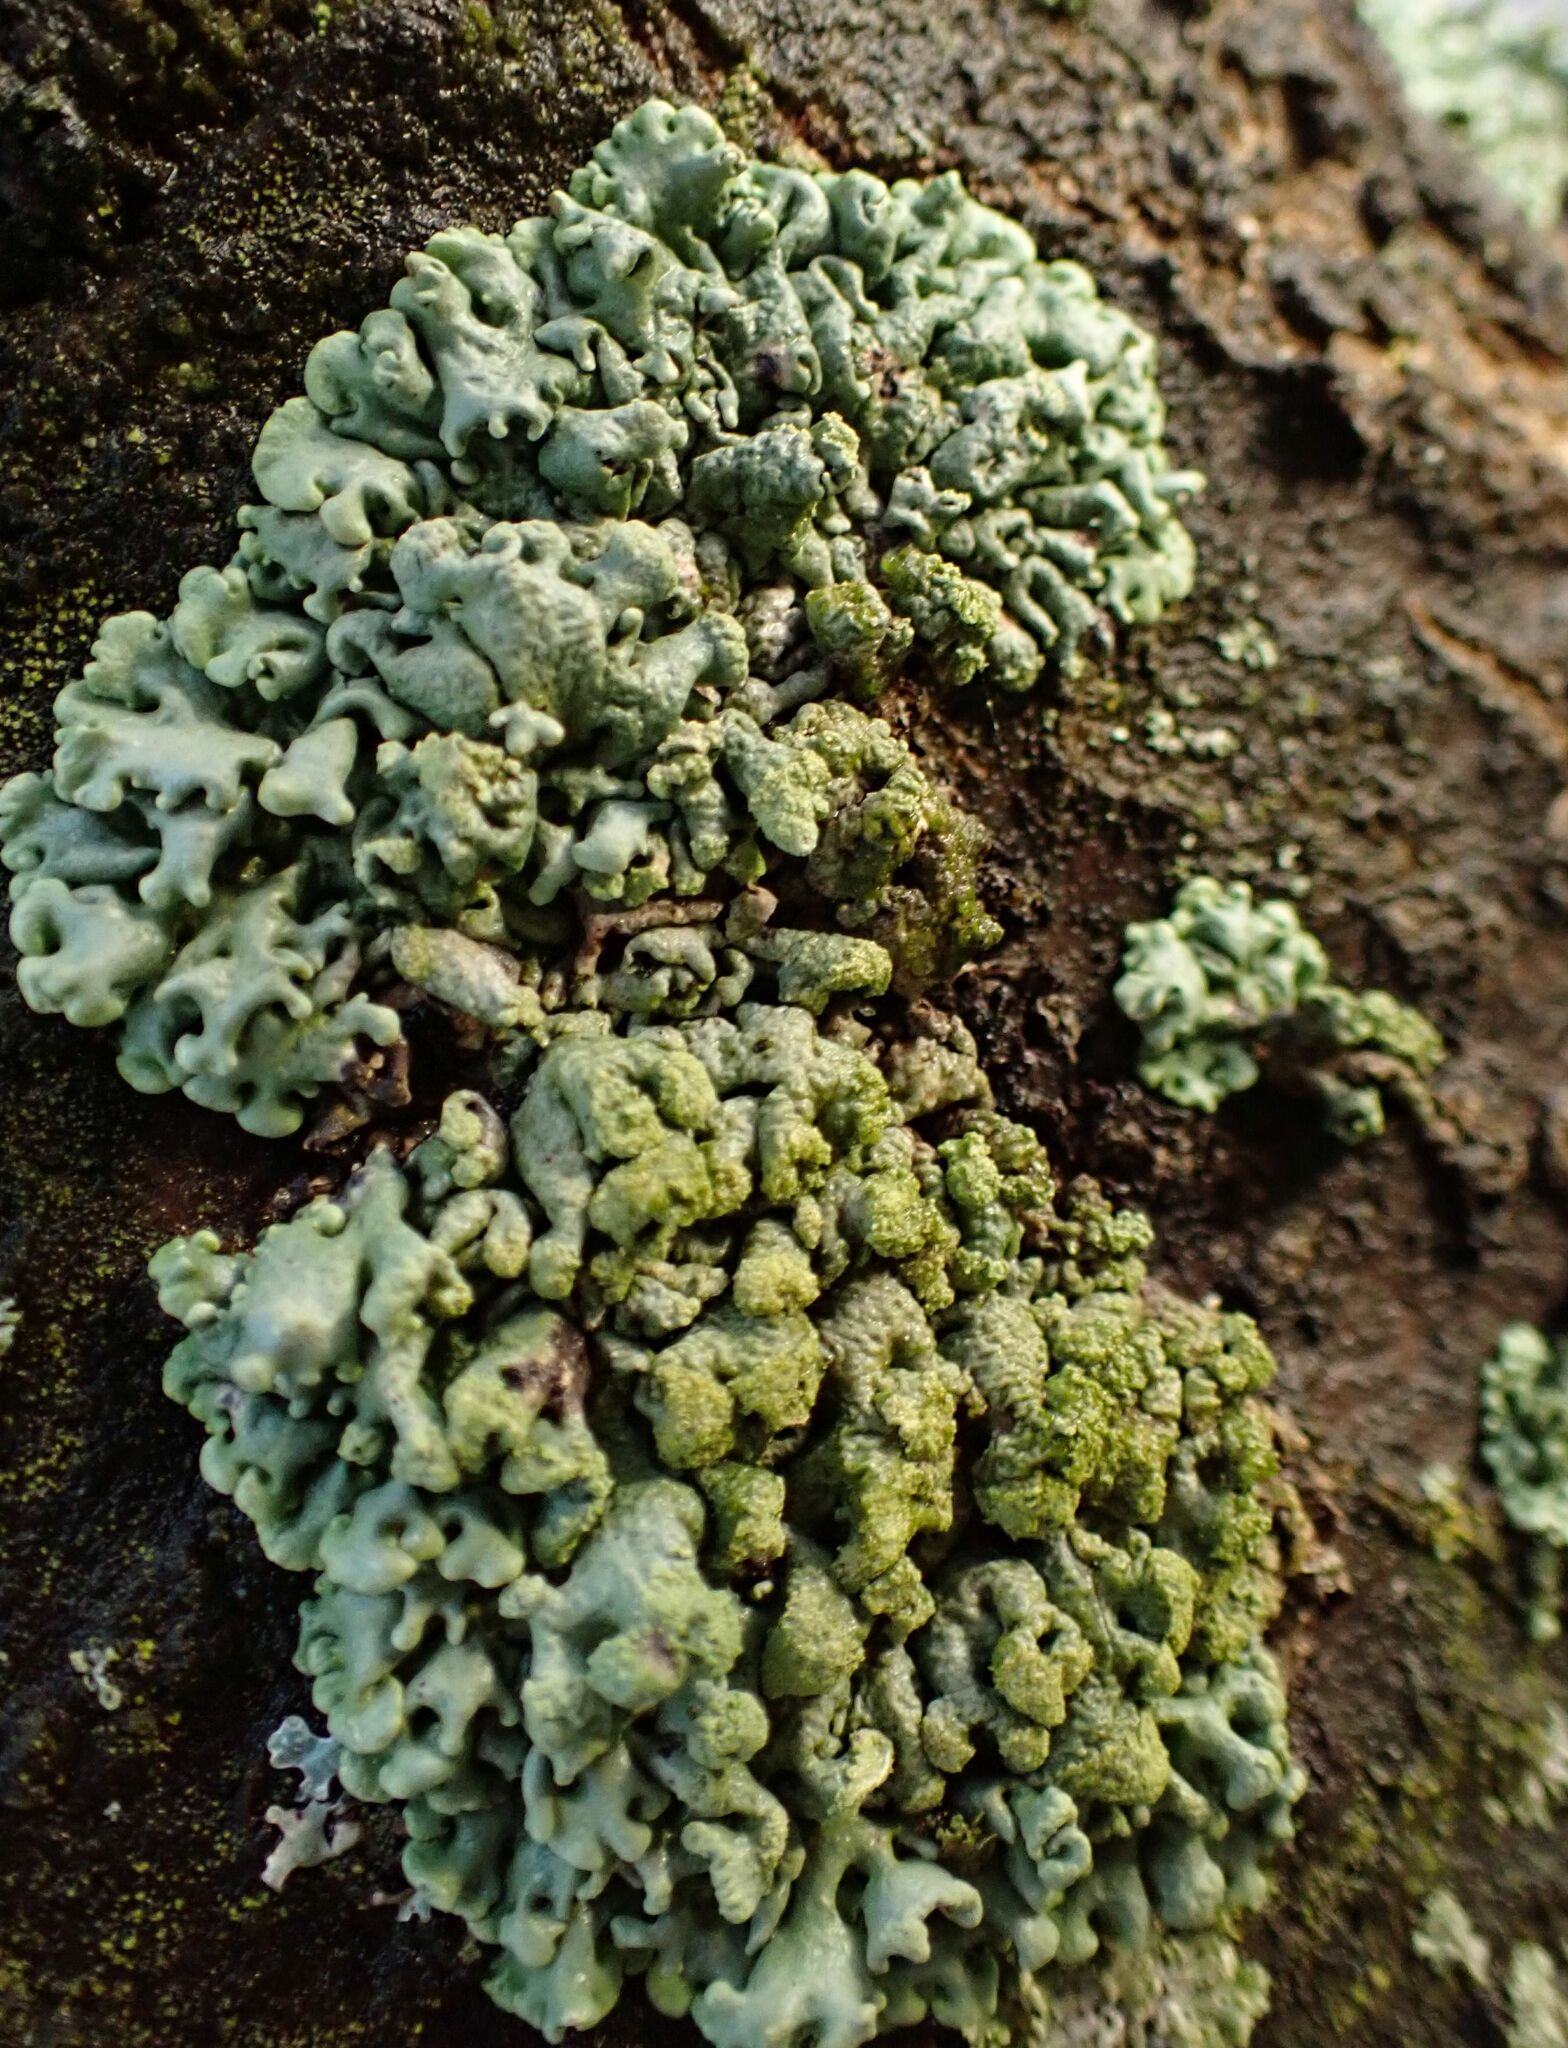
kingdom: Fungi
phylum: Ascomycota
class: Lecanoromycetes
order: Lecanorales
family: Parmeliaceae
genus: Hypogymnia
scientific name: Hypogymnia tubulosa
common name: Powder-headed tube lichen
